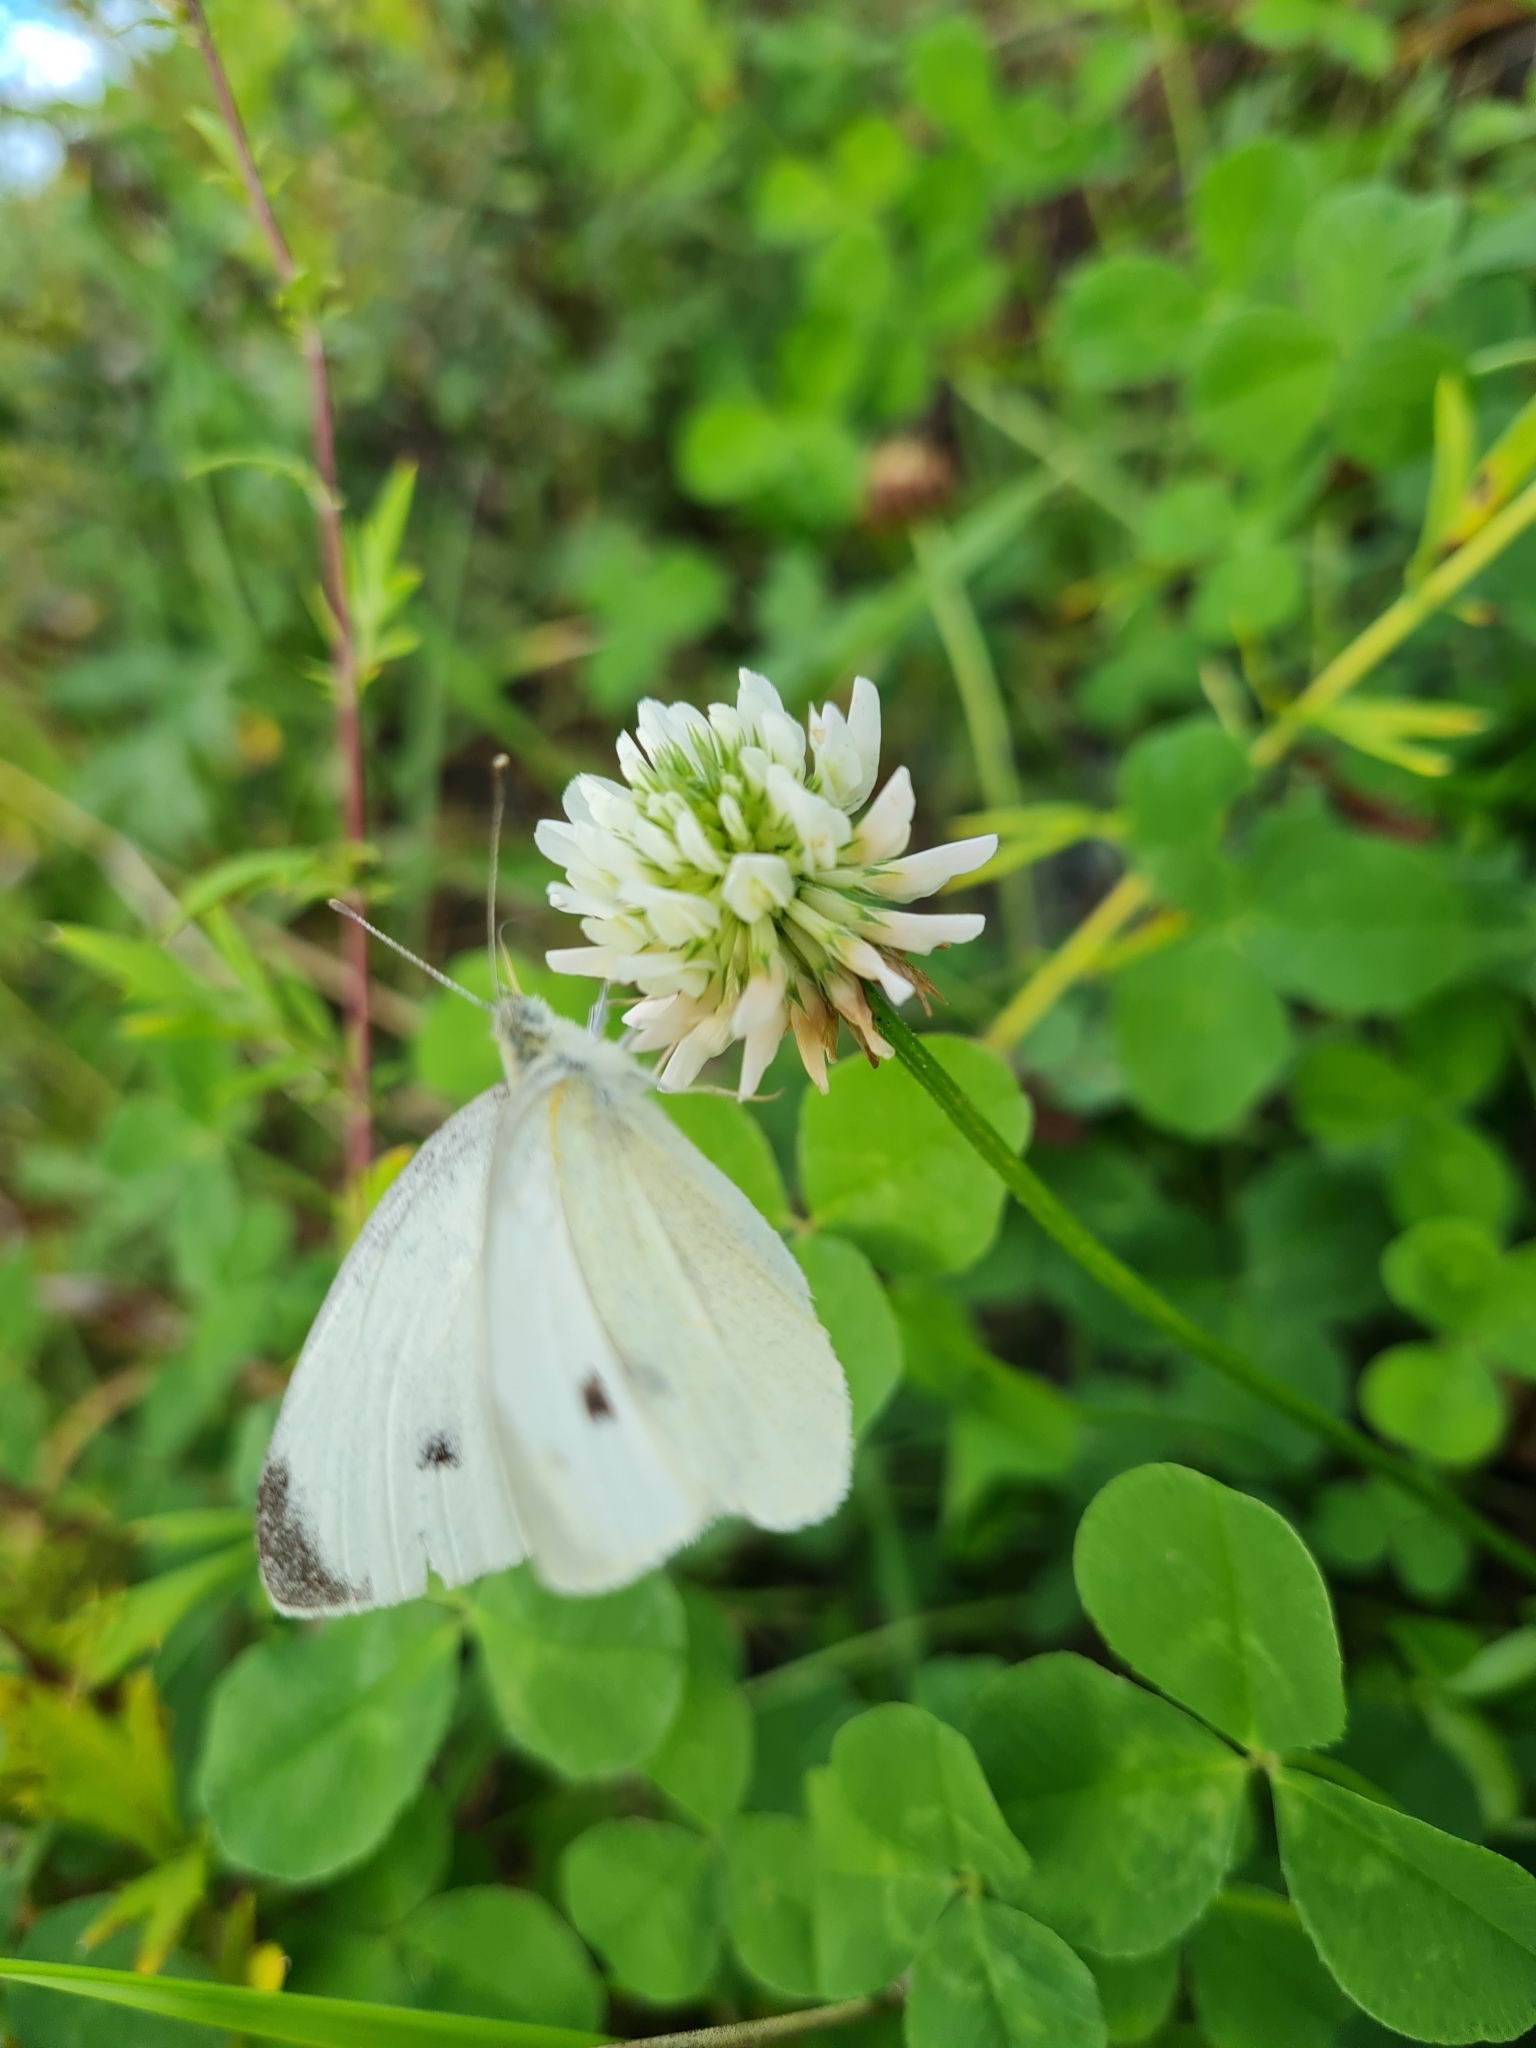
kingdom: Animalia
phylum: Arthropoda
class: Insecta
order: Lepidoptera
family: Pieridae
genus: Pieris
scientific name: Pieris rapae
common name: Small white
